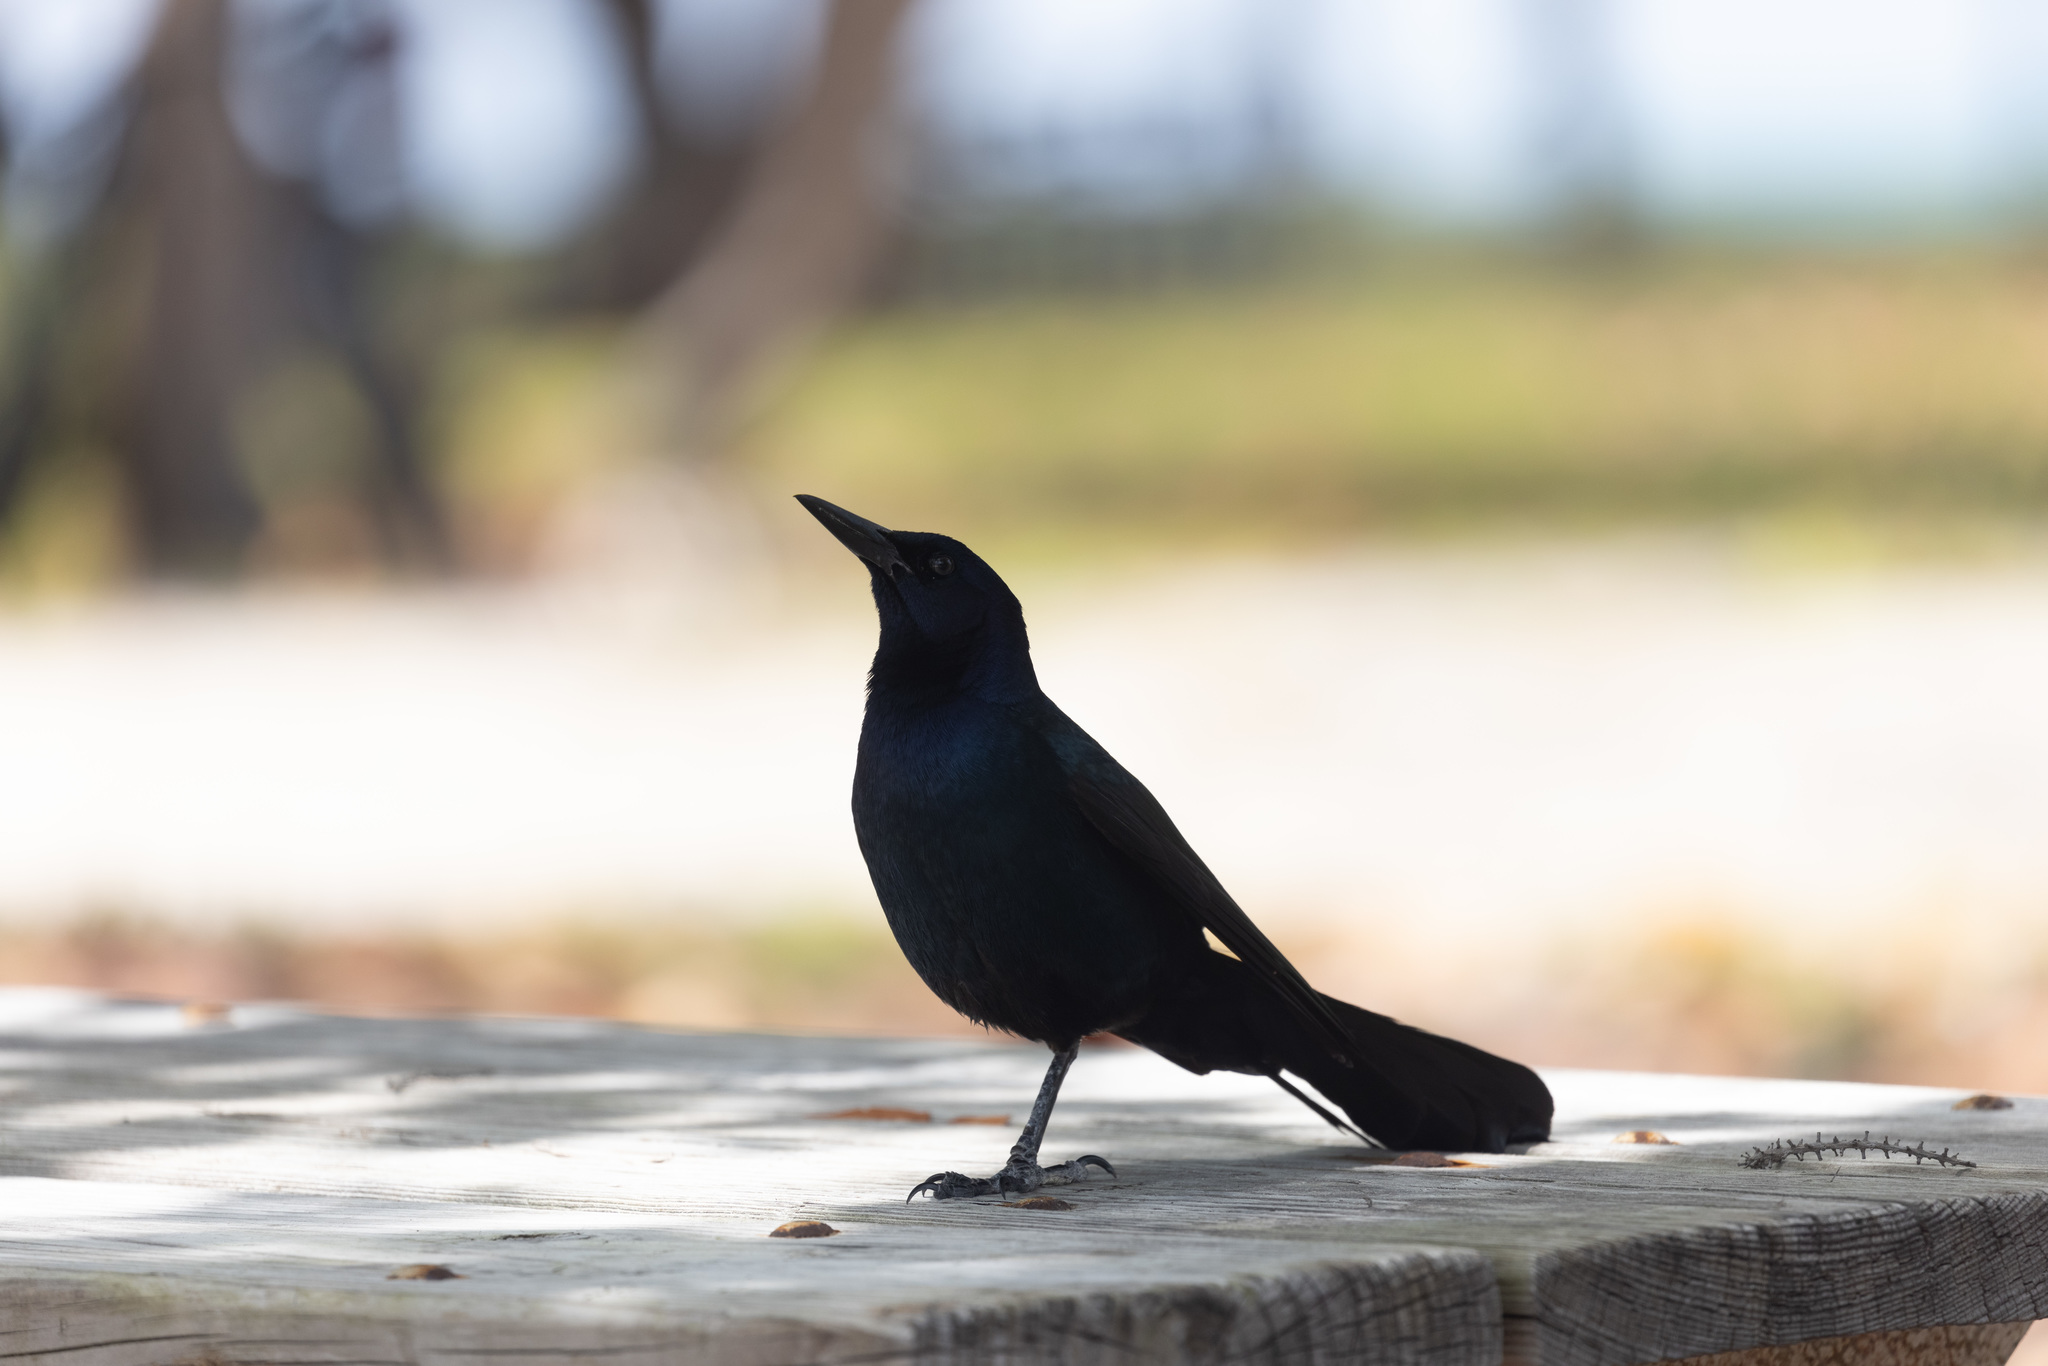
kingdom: Animalia
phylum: Chordata
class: Aves
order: Passeriformes
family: Icteridae
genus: Quiscalus
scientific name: Quiscalus major
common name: Boat-tailed grackle
